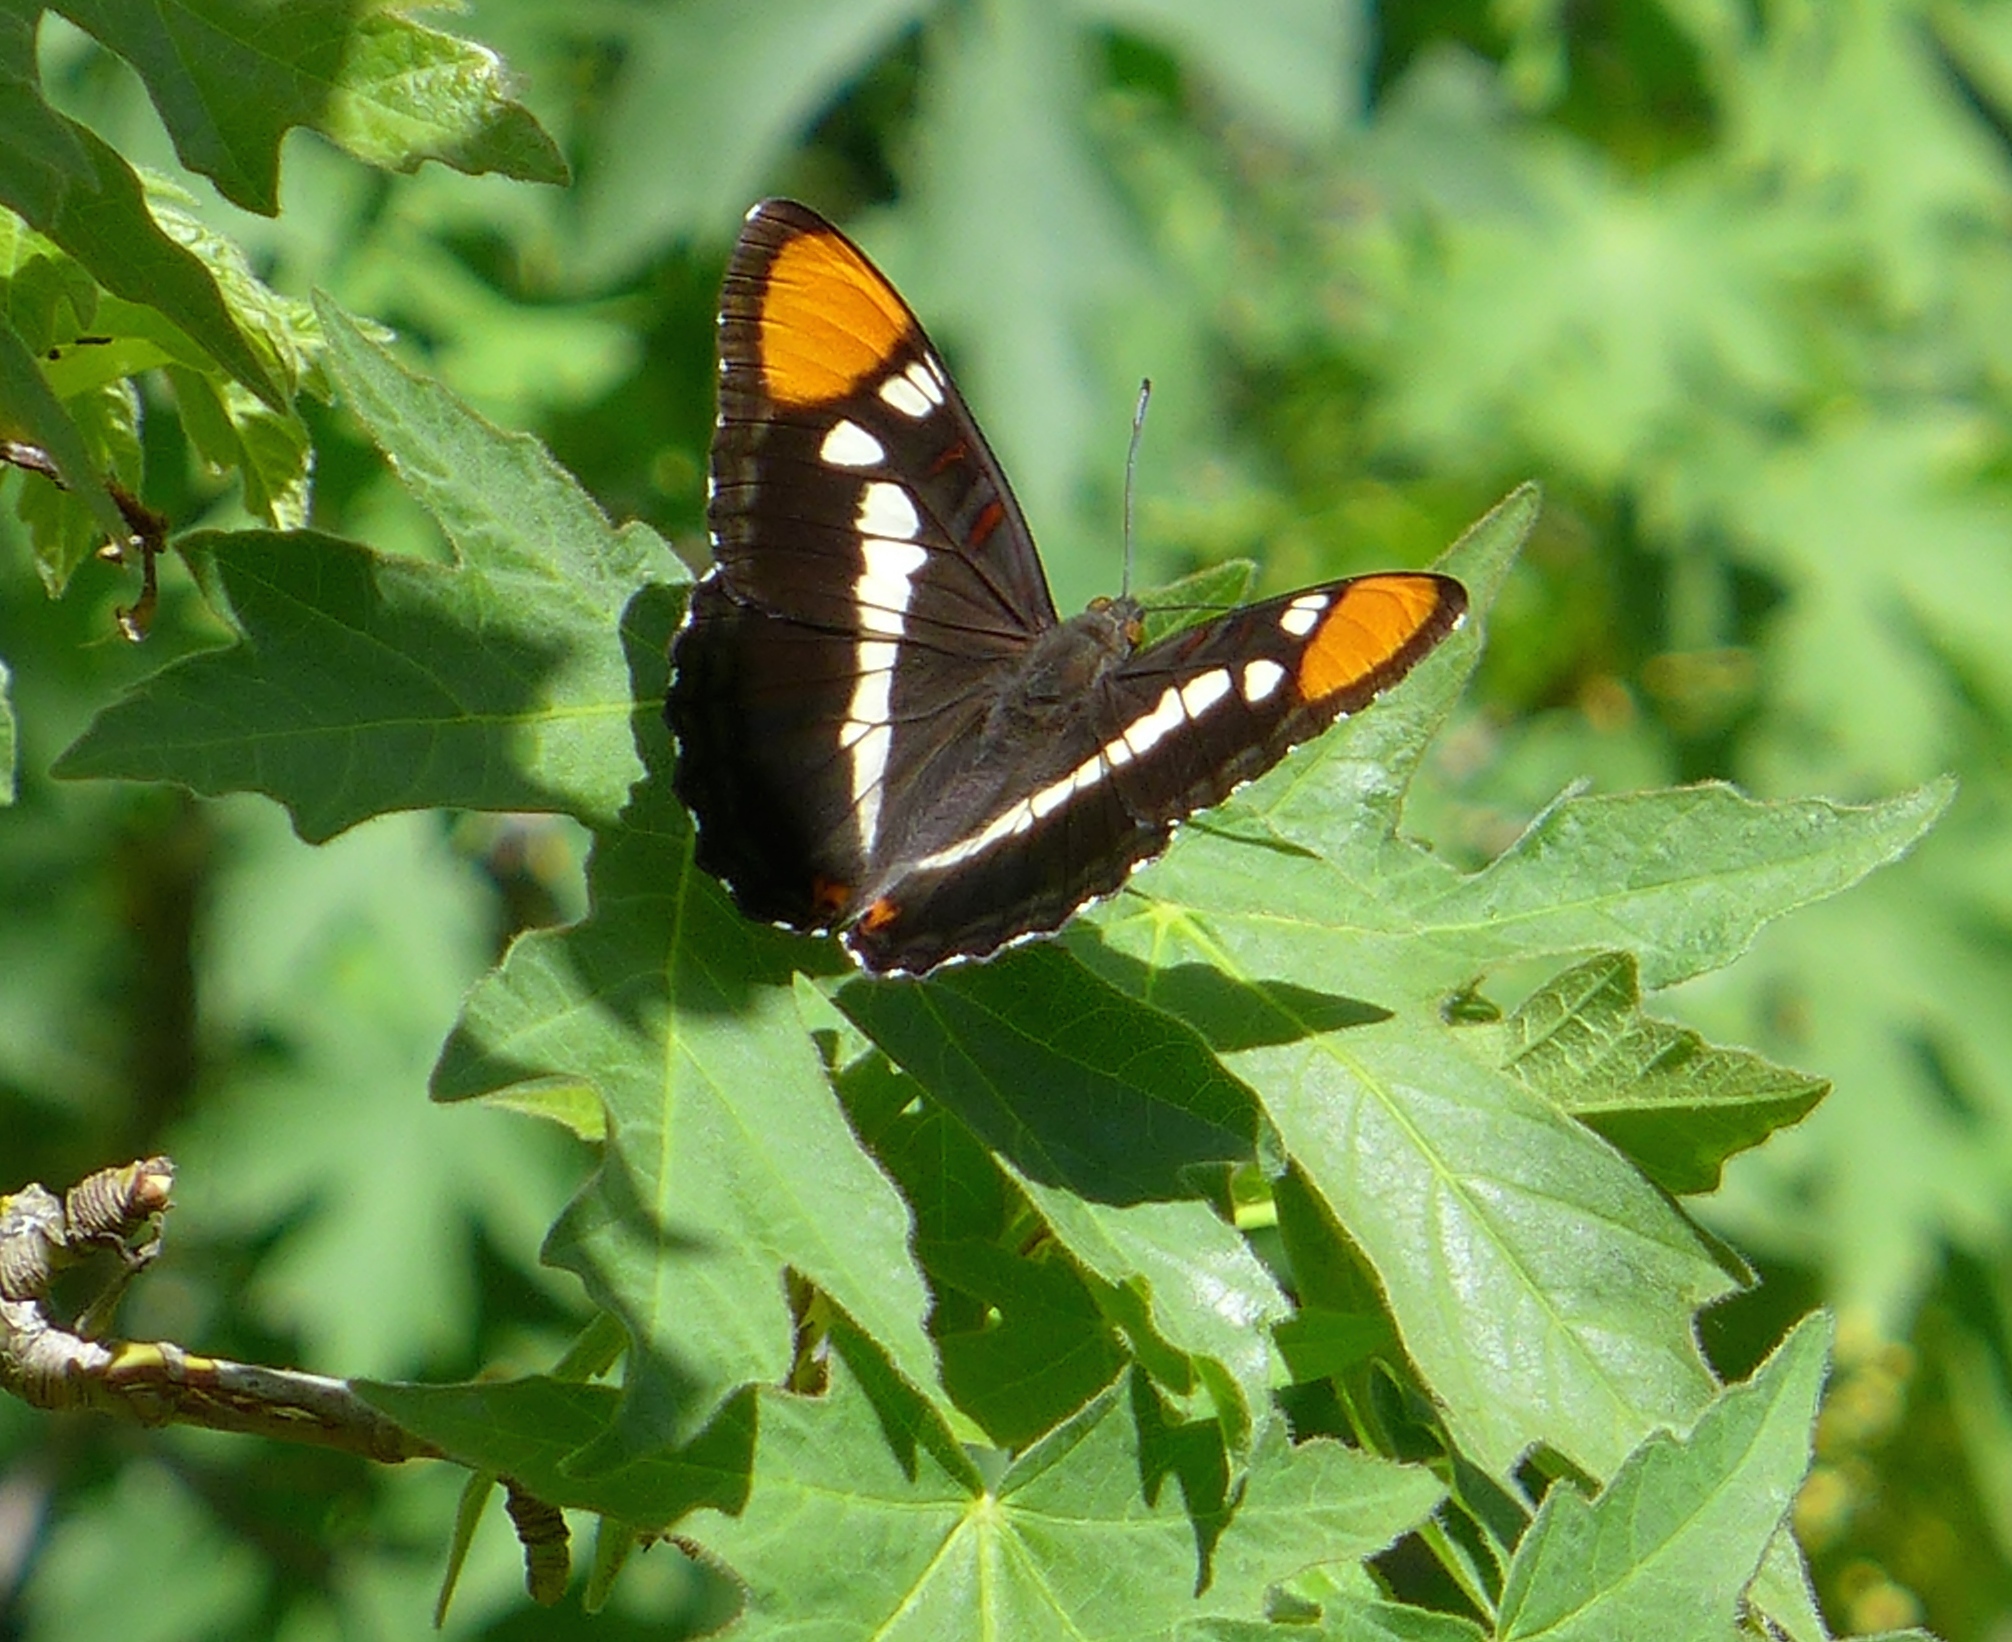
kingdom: Animalia
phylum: Arthropoda
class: Insecta
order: Lepidoptera
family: Nymphalidae
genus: Limenitis
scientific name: Limenitis bredowii
